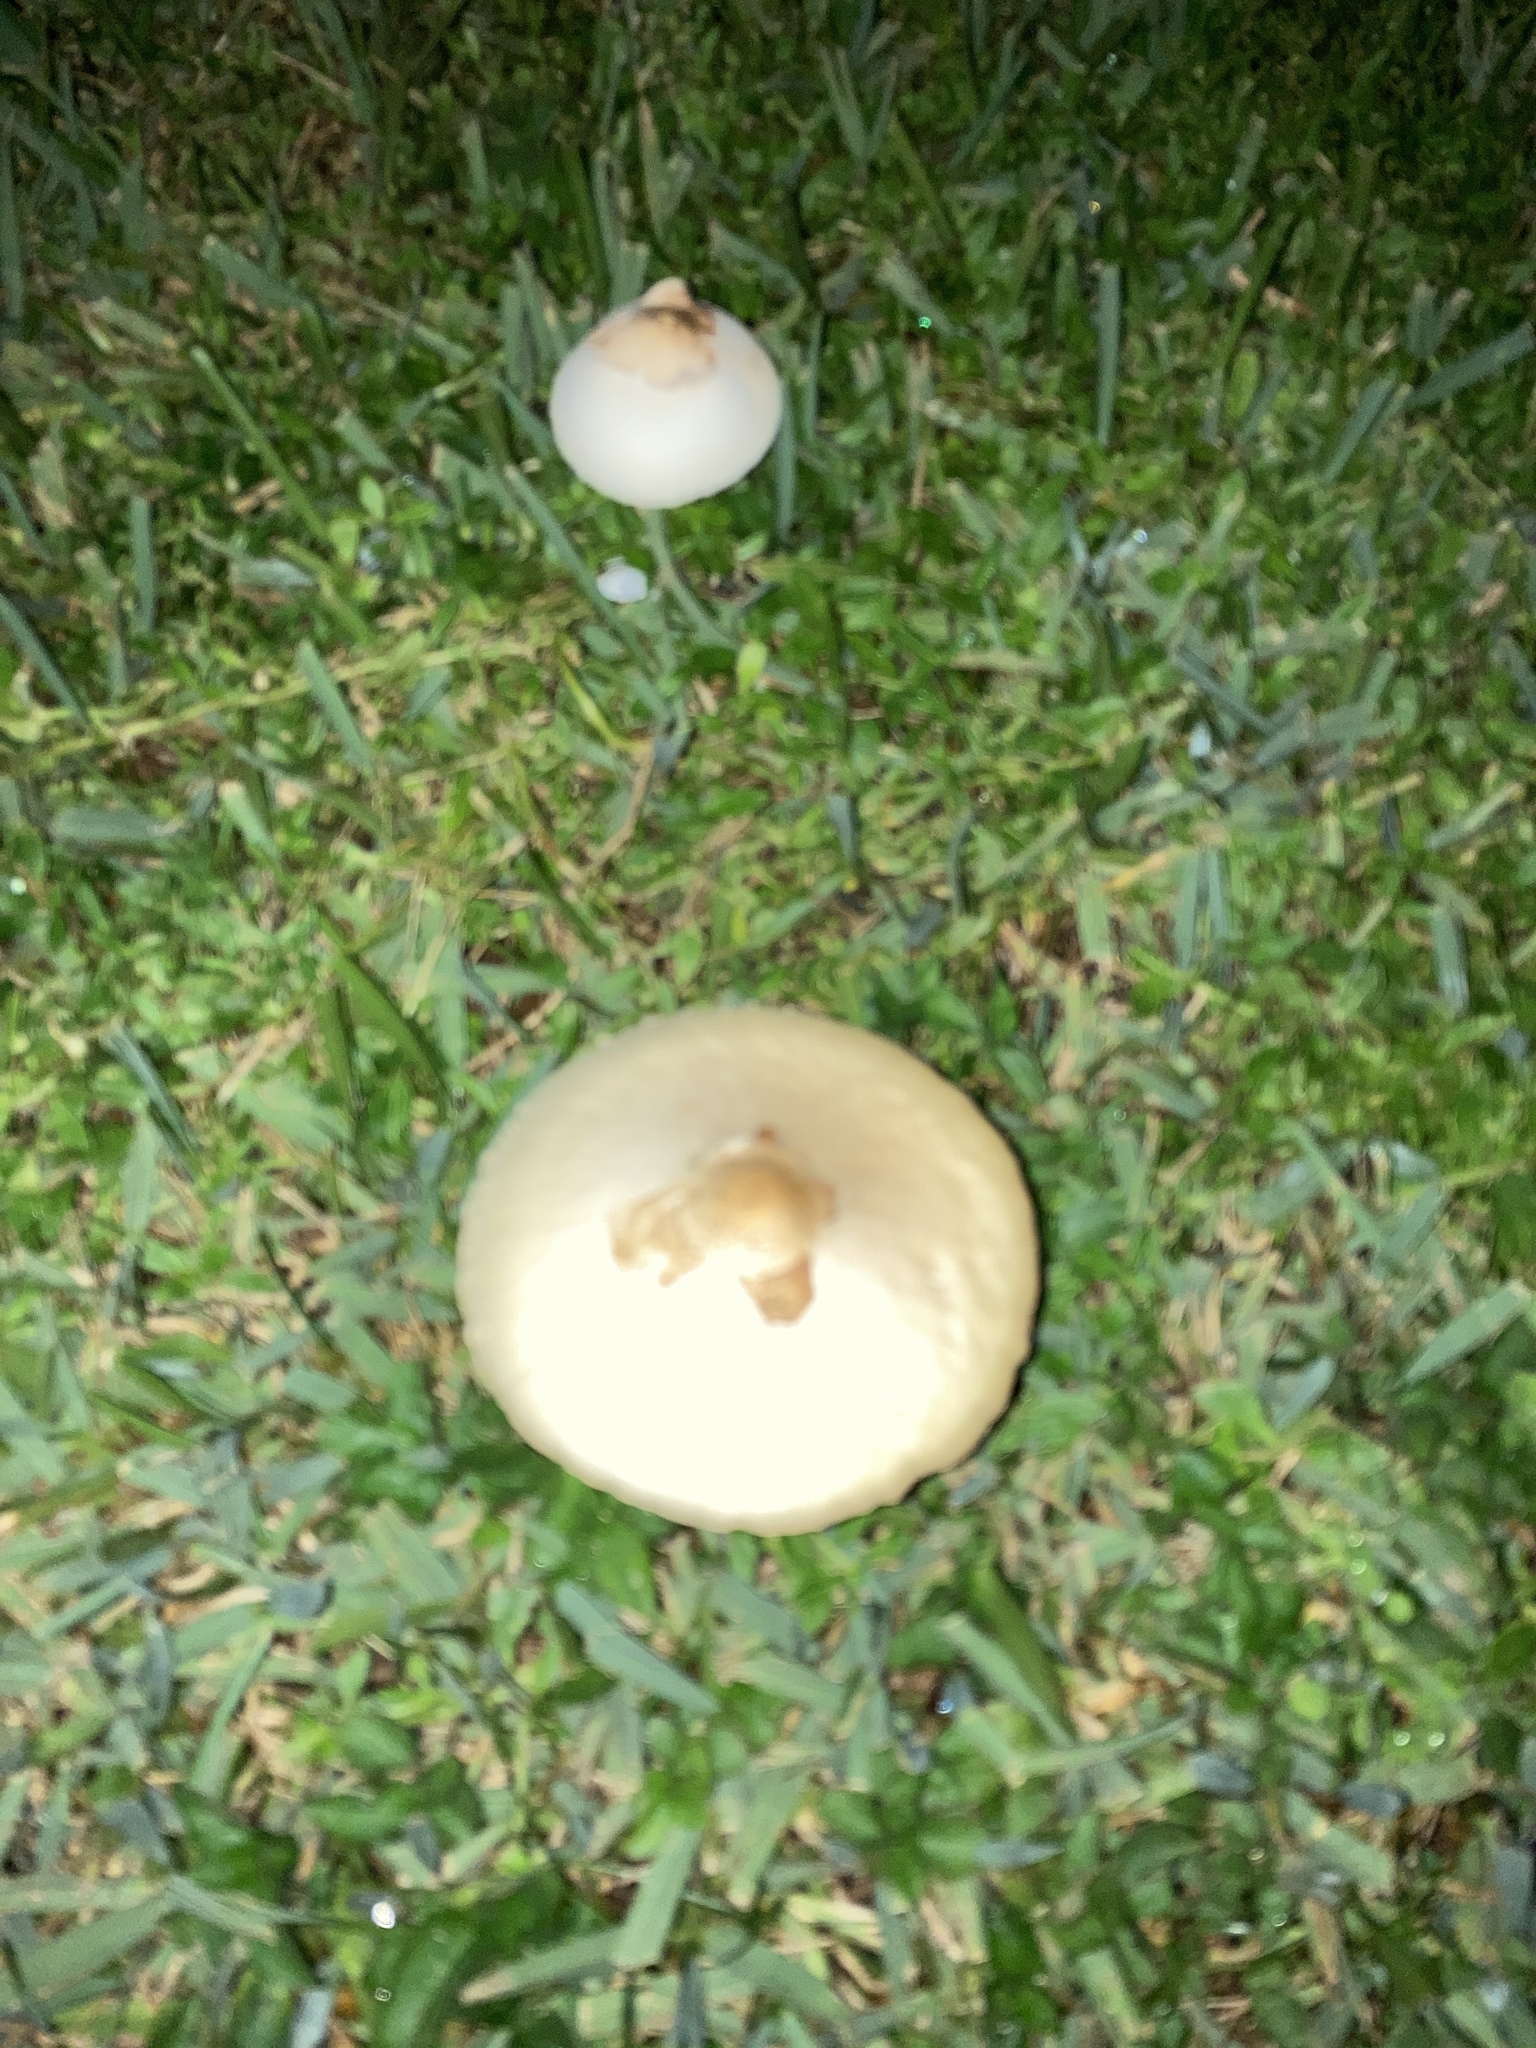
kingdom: Fungi
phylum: Basidiomycota
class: Agaricomycetes
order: Agaricales
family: Agaricaceae
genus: Chlorophyllum
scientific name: Chlorophyllum molybdites
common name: False parasol
